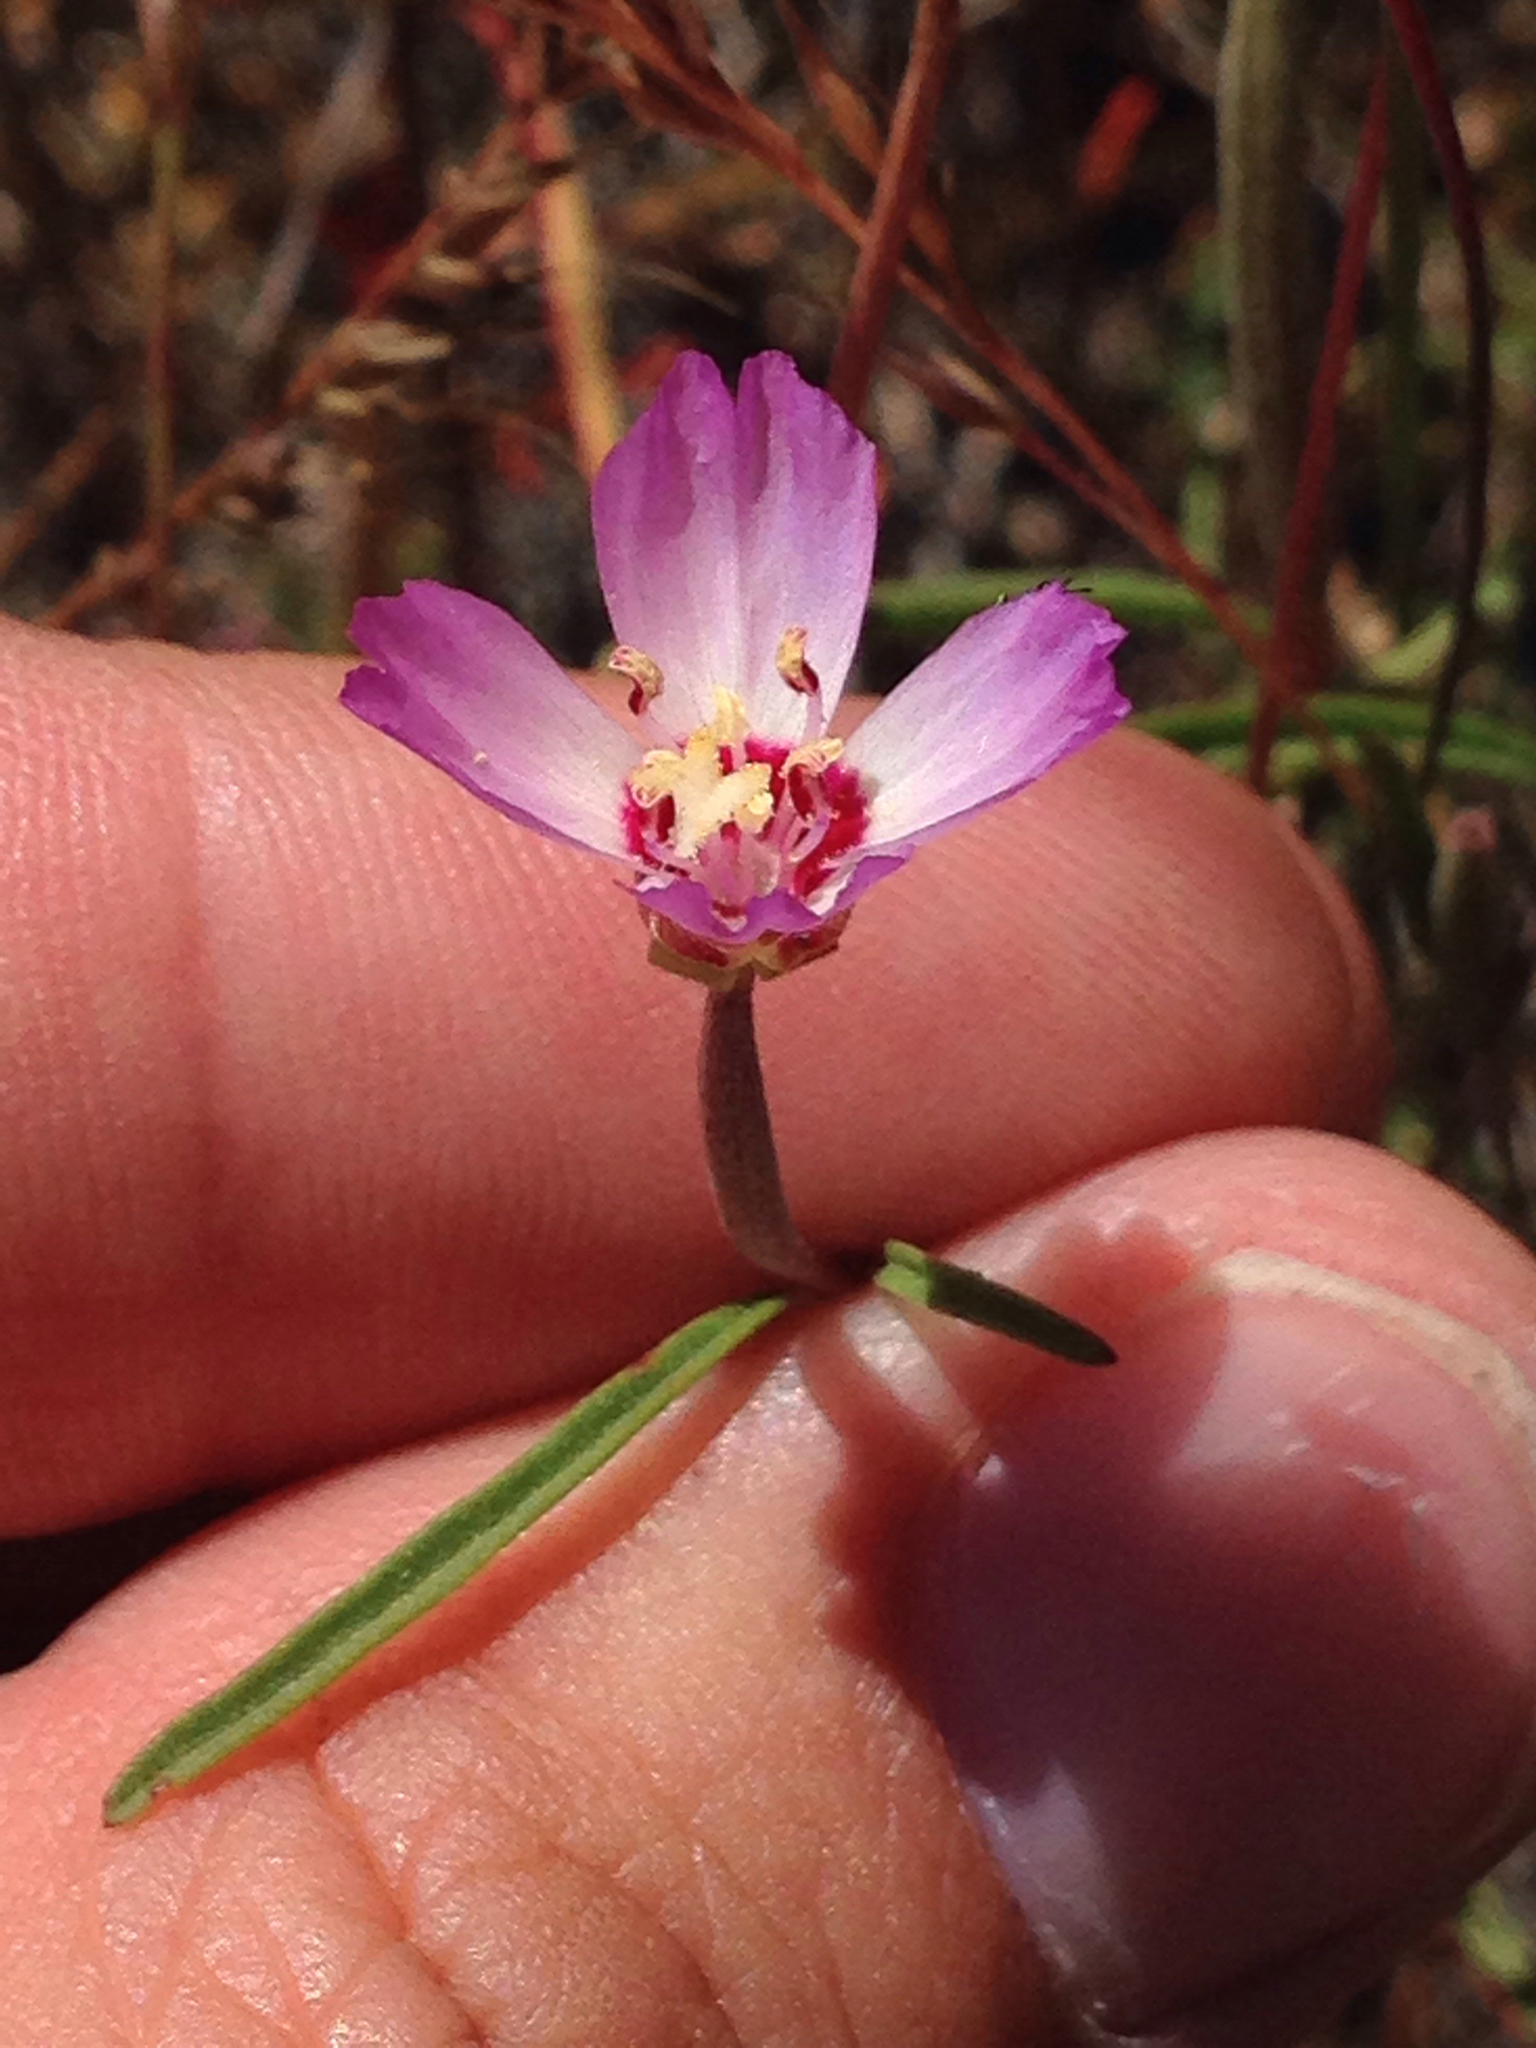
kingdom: Plantae
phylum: Tracheophyta
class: Magnoliopsida
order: Myrtales
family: Onagraceae
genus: Clarkia
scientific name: Clarkia franciscana
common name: Presidio clarkia
